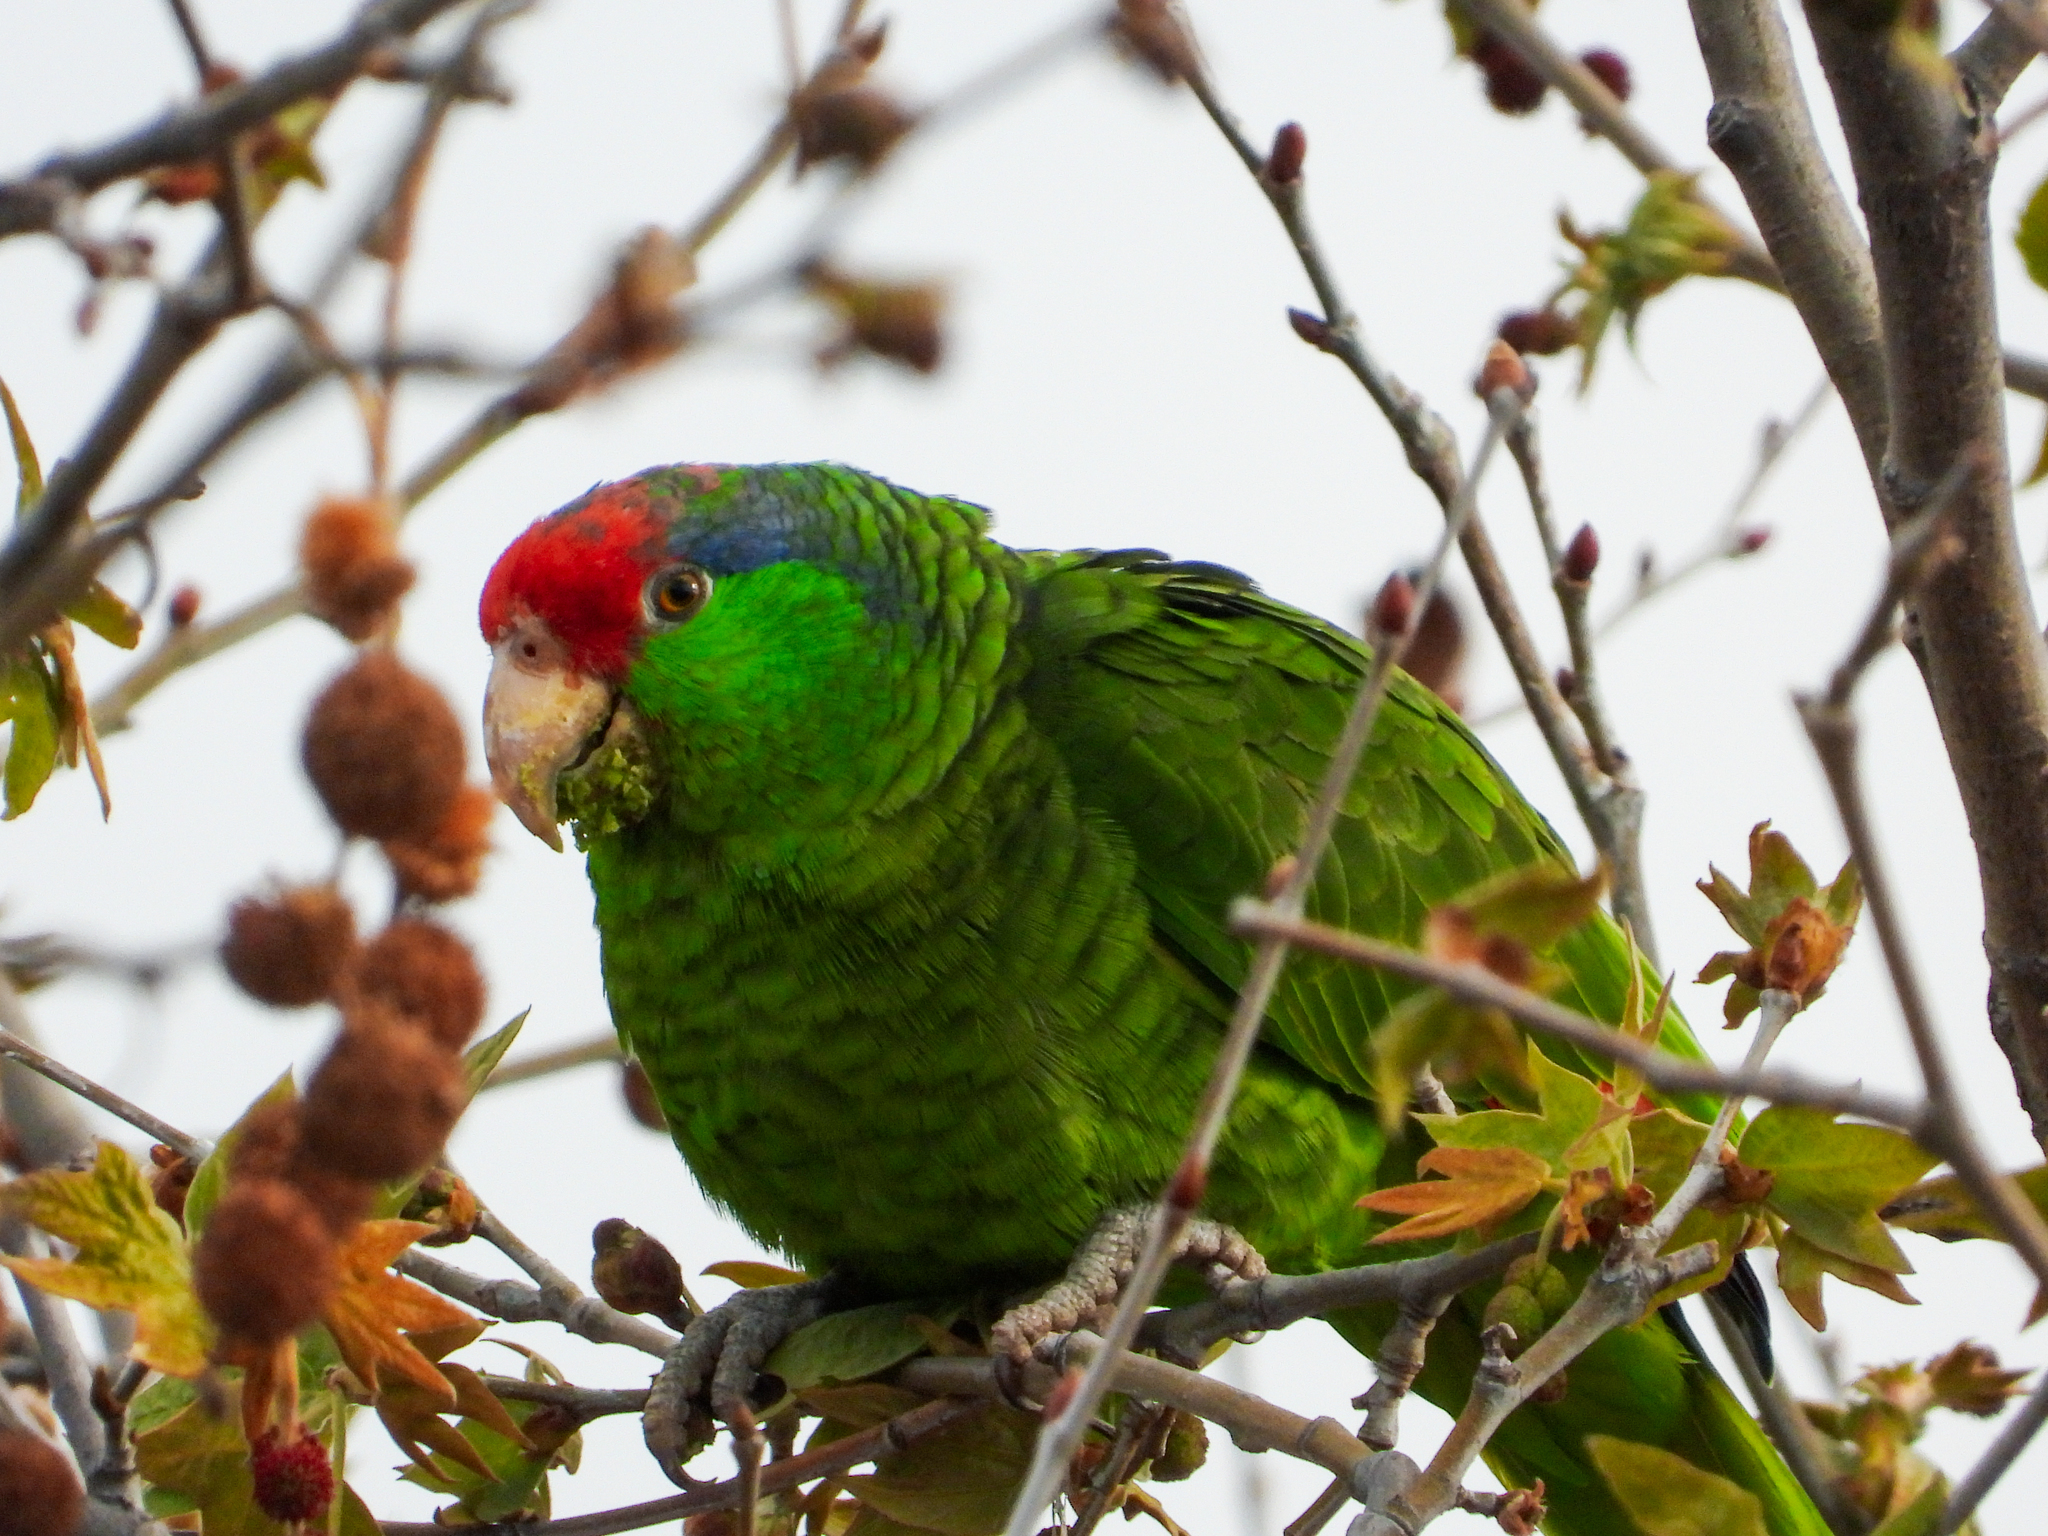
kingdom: Animalia
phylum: Chordata
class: Aves
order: Psittaciformes
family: Psittacidae
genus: Amazona
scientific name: Amazona viridigenalis
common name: Red-crowned amazon
